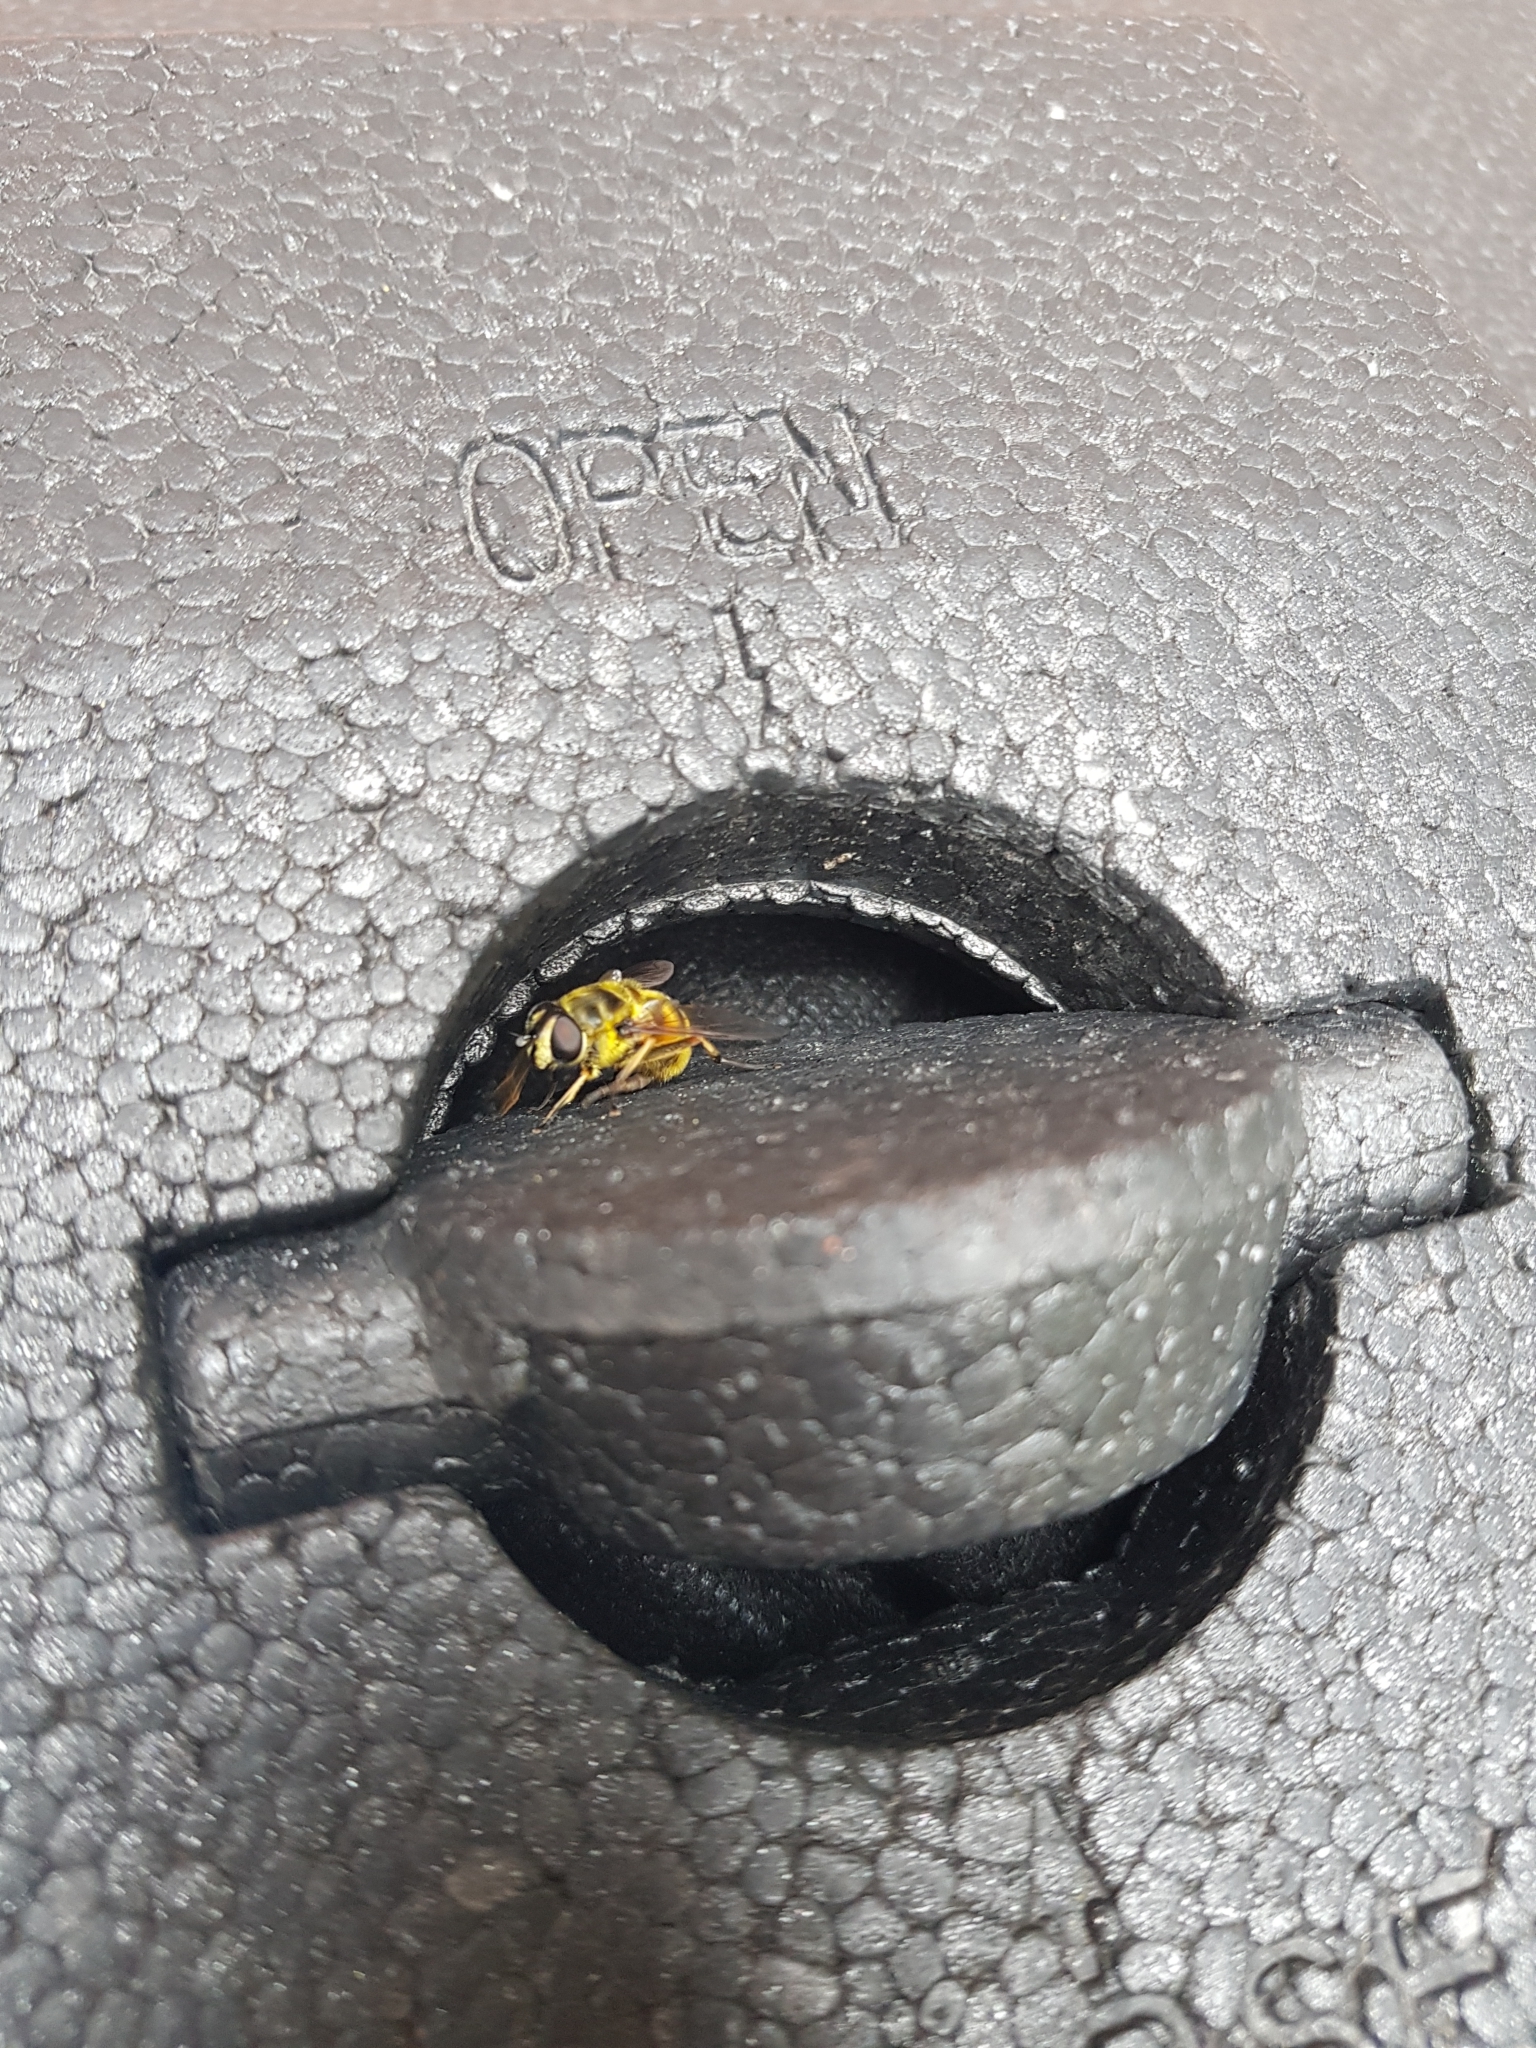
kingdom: Animalia
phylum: Arthropoda
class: Insecta
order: Diptera
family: Syrphidae
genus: Myathropa
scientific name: Myathropa florea
